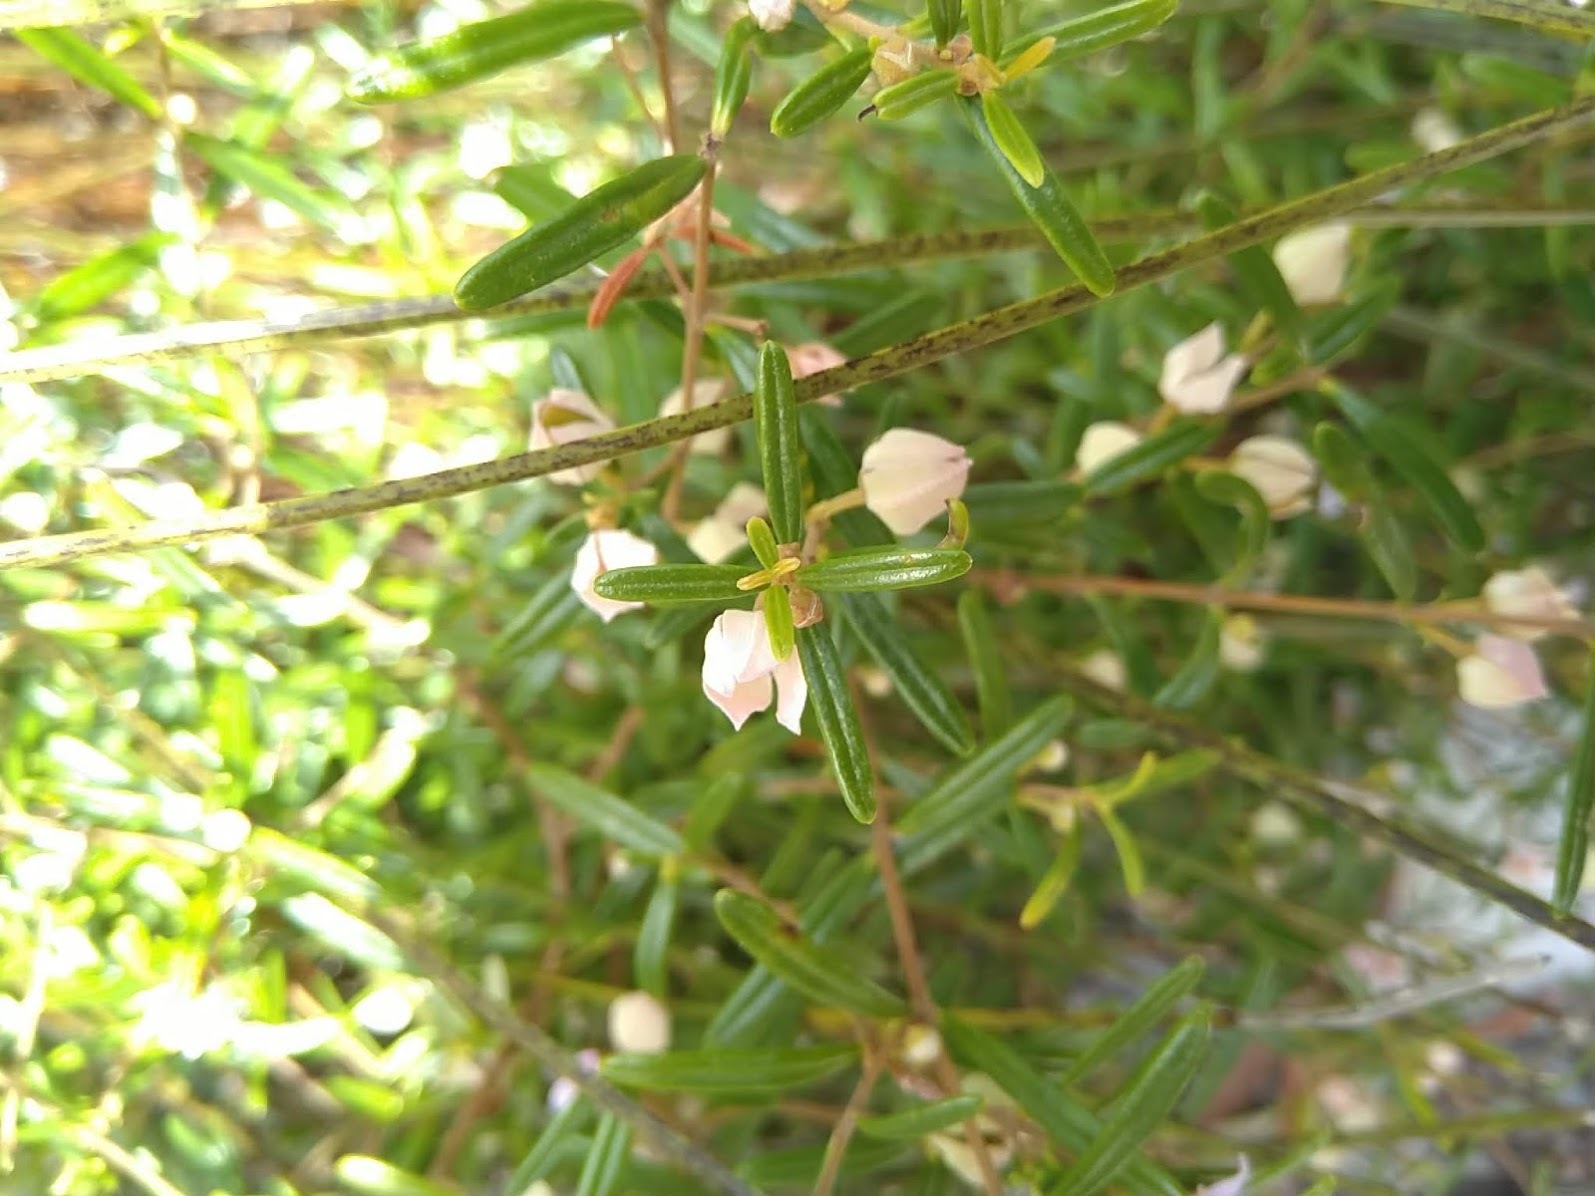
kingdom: Plantae
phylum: Tracheophyta
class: Magnoliopsida
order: Sapindales
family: Rutaceae
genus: Boronia
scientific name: Boronia rosmarinifolia
